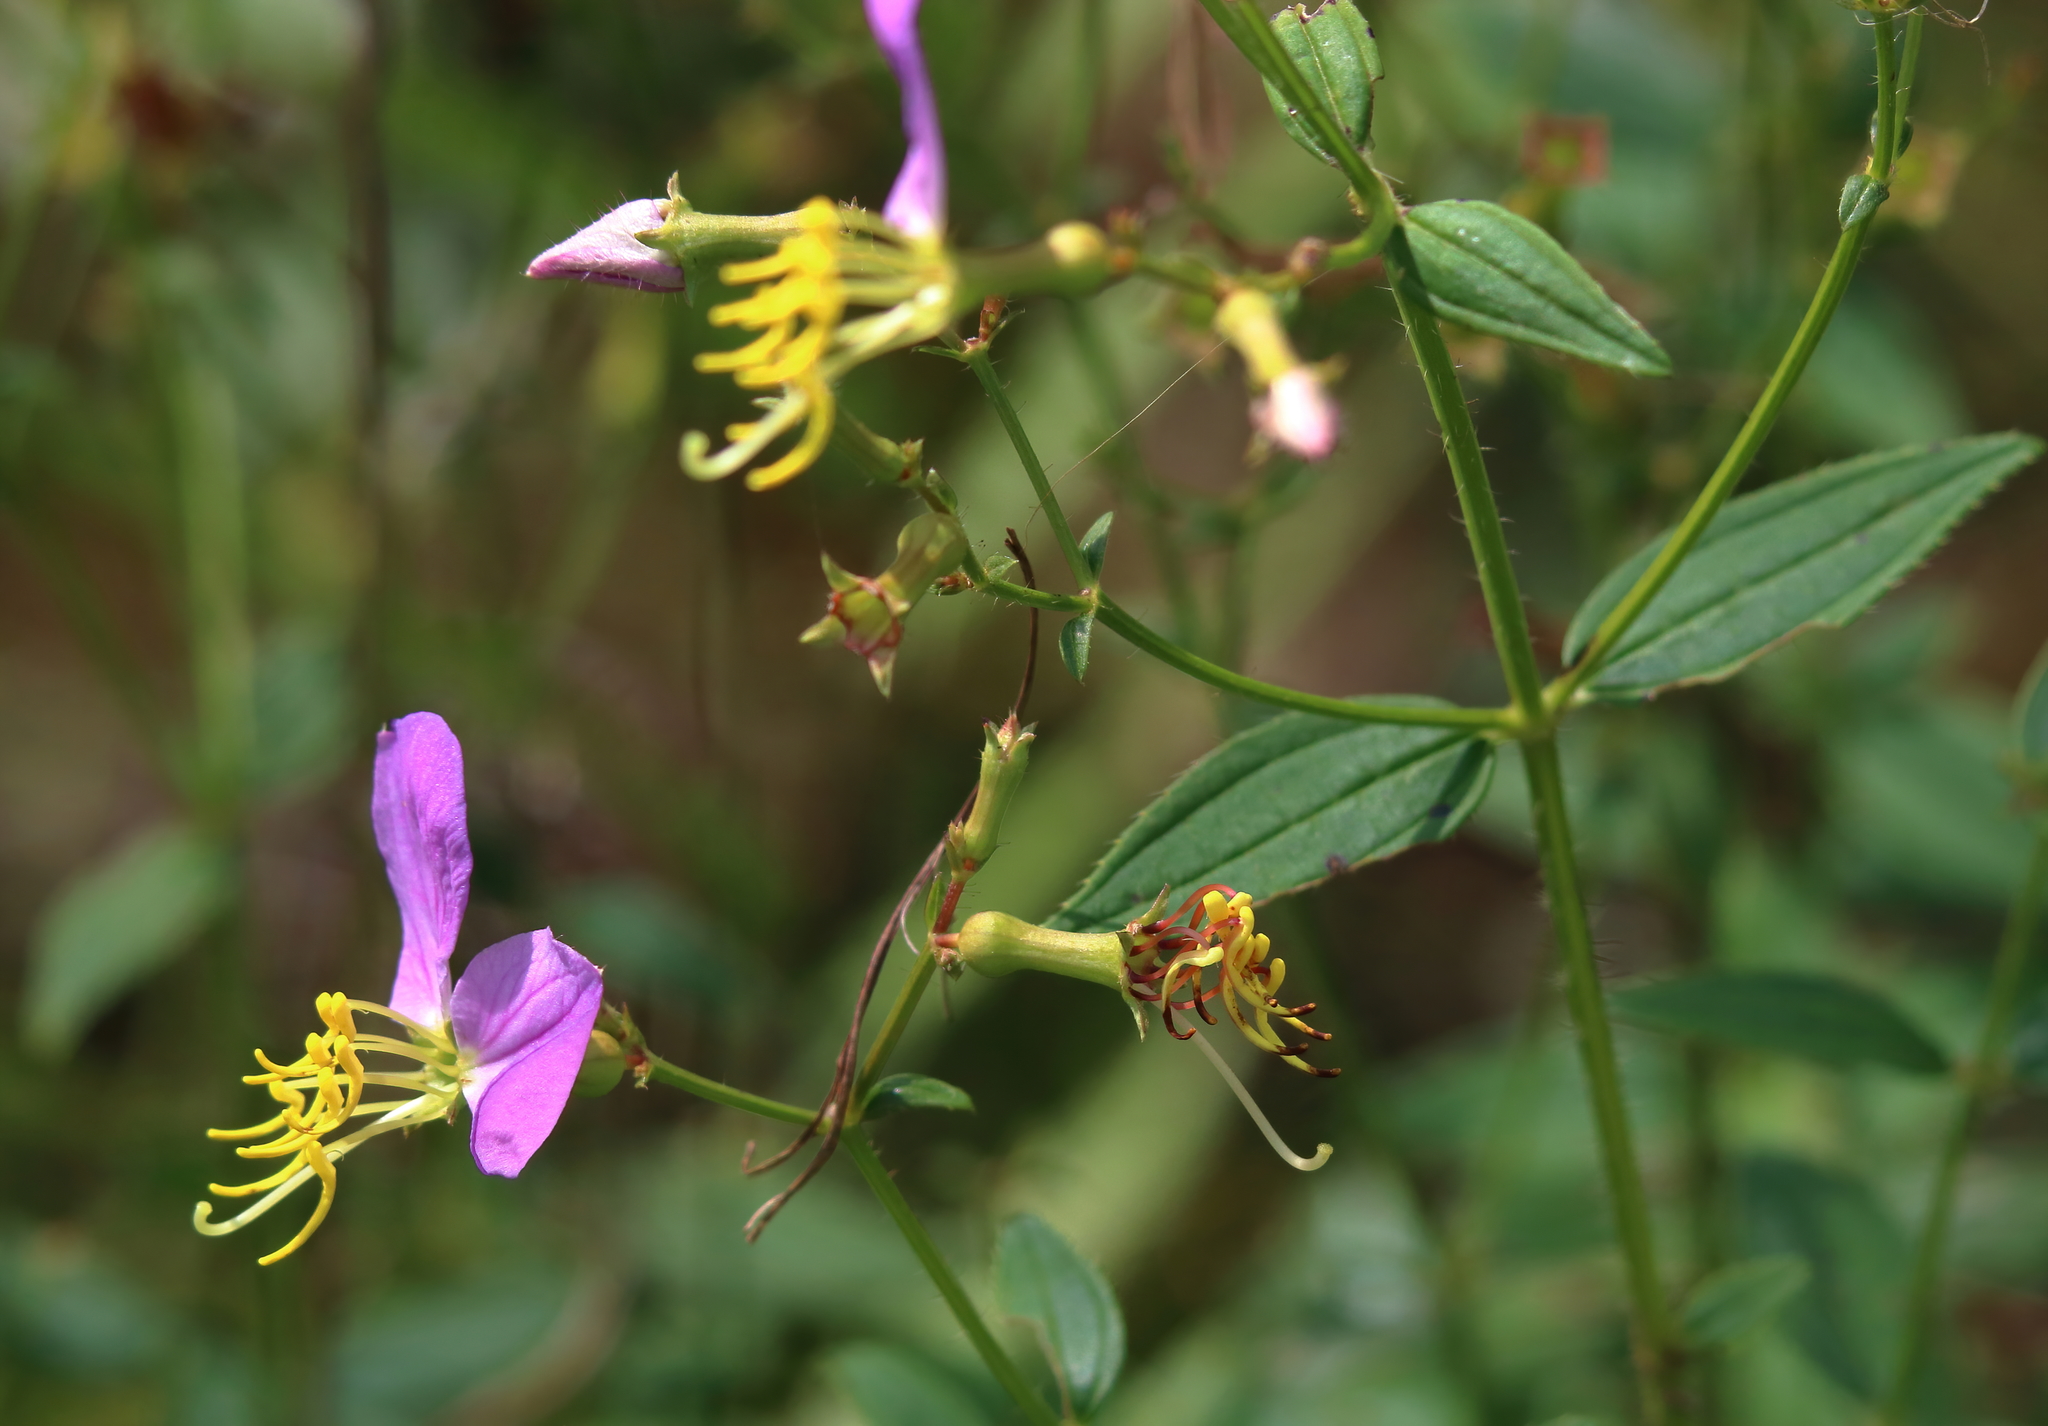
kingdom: Plantae
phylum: Tracheophyta
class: Magnoliopsida
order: Myrtales
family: Melastomataceae
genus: Rhexia
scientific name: Rhexia virginica
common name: Common meadow beauty
